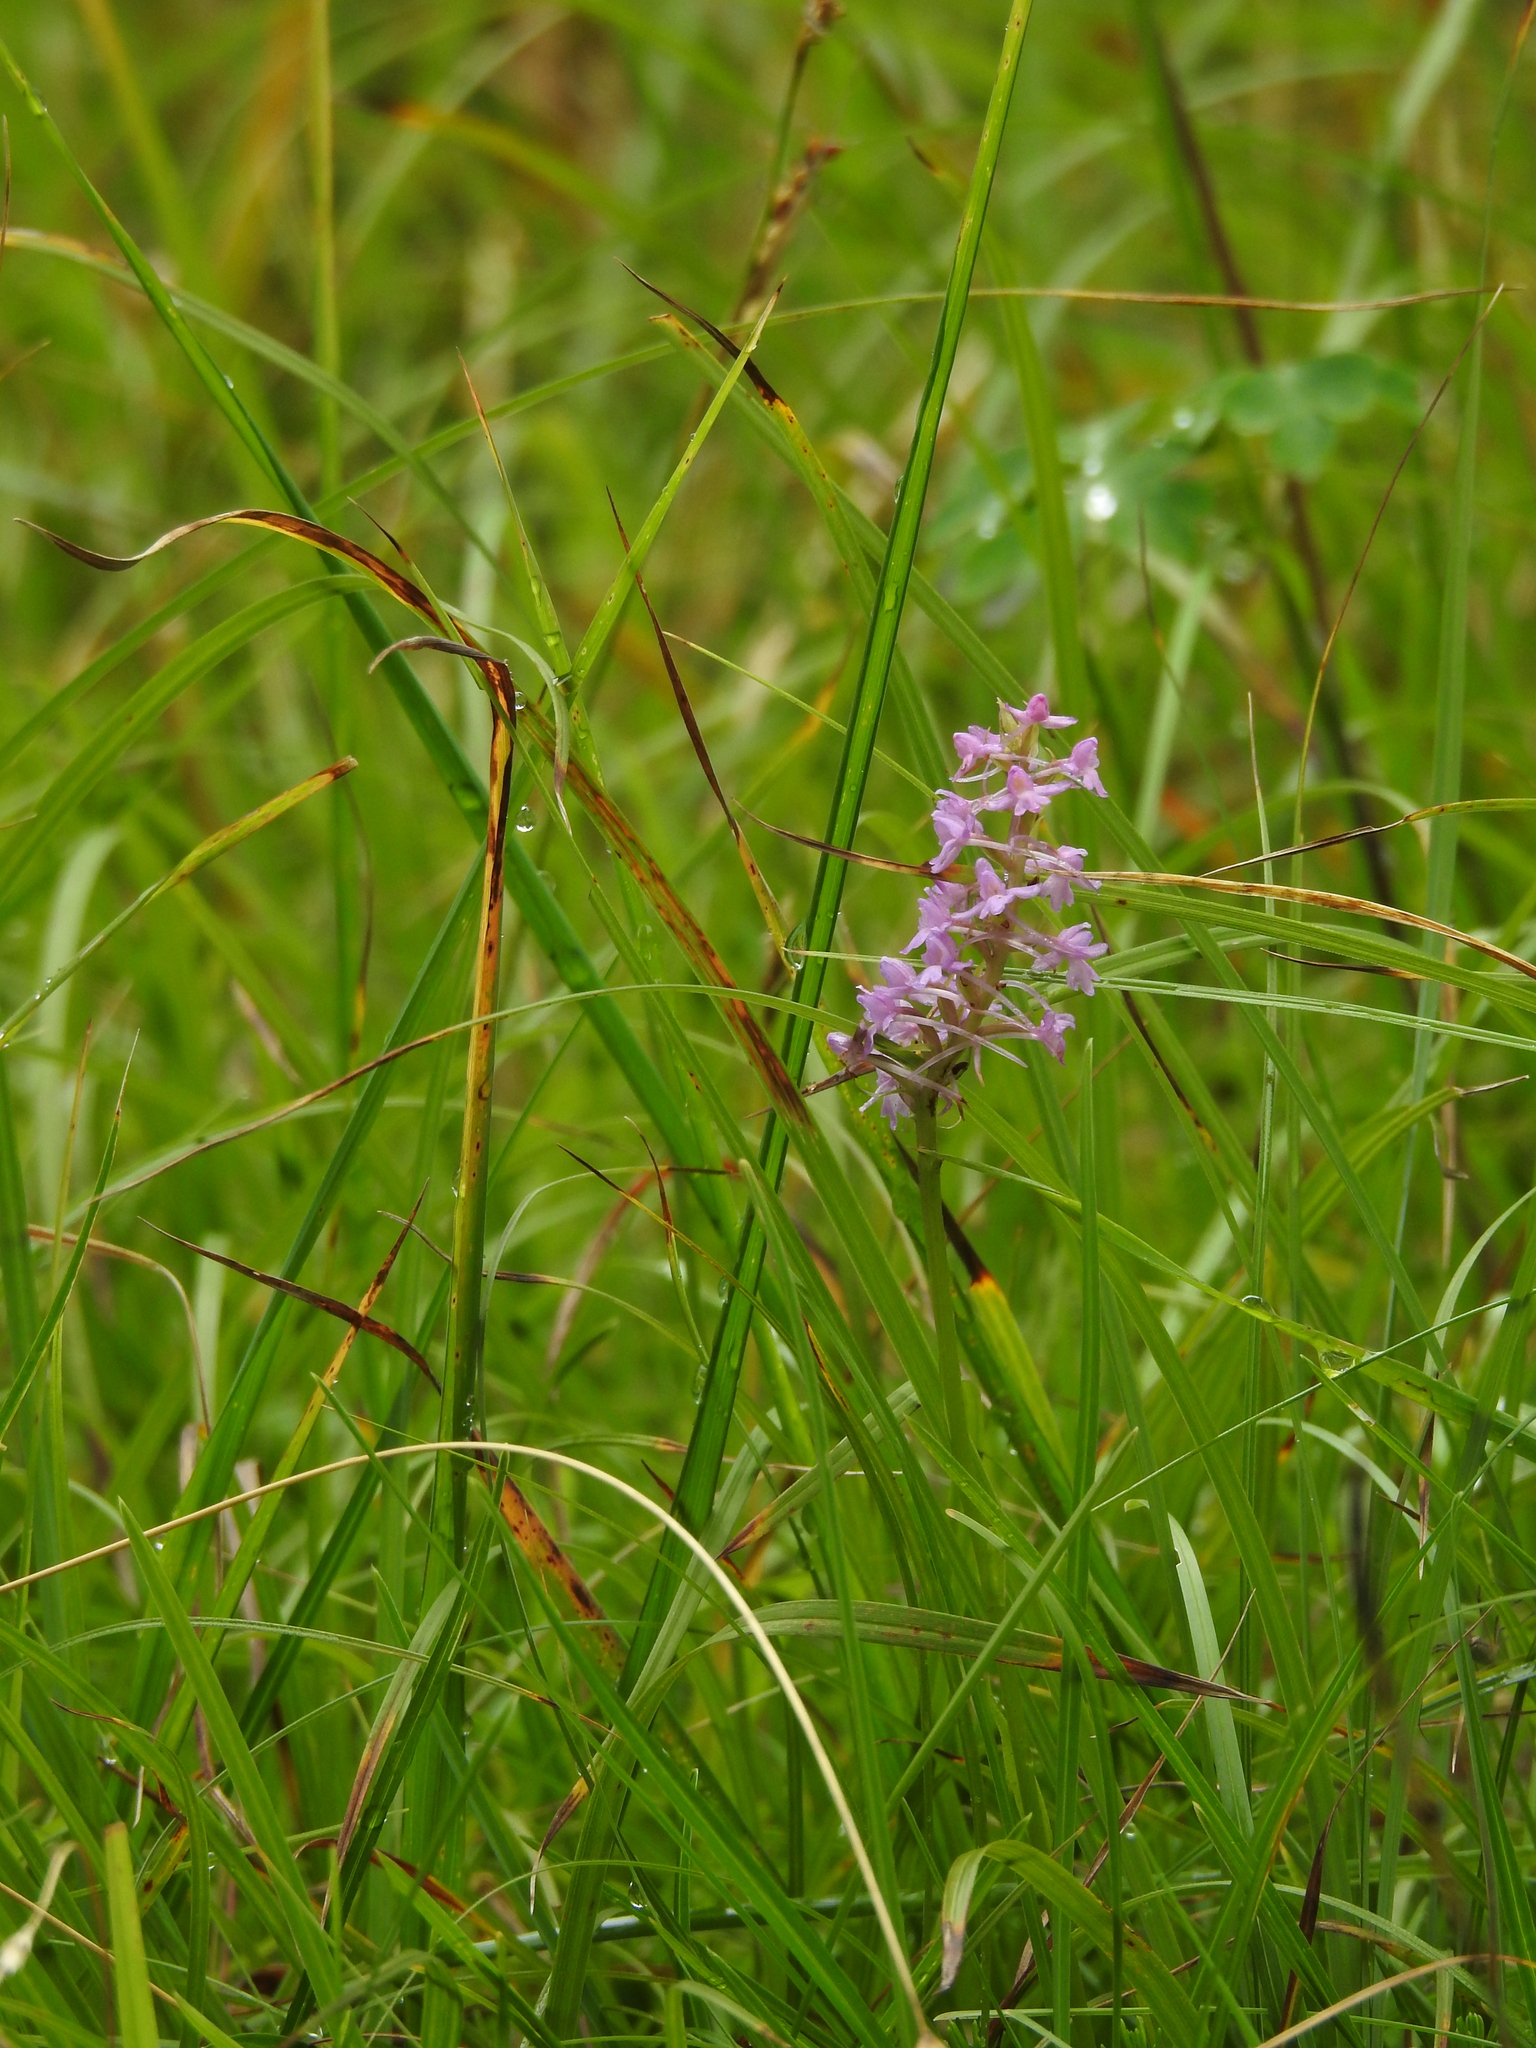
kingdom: Plantae
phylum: Tracheophyta
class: Liliopsida
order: Asparagales
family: Orchidaceae
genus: Gymnadenia
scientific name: Gymnadenia conopsea
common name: Fragrant orchid
